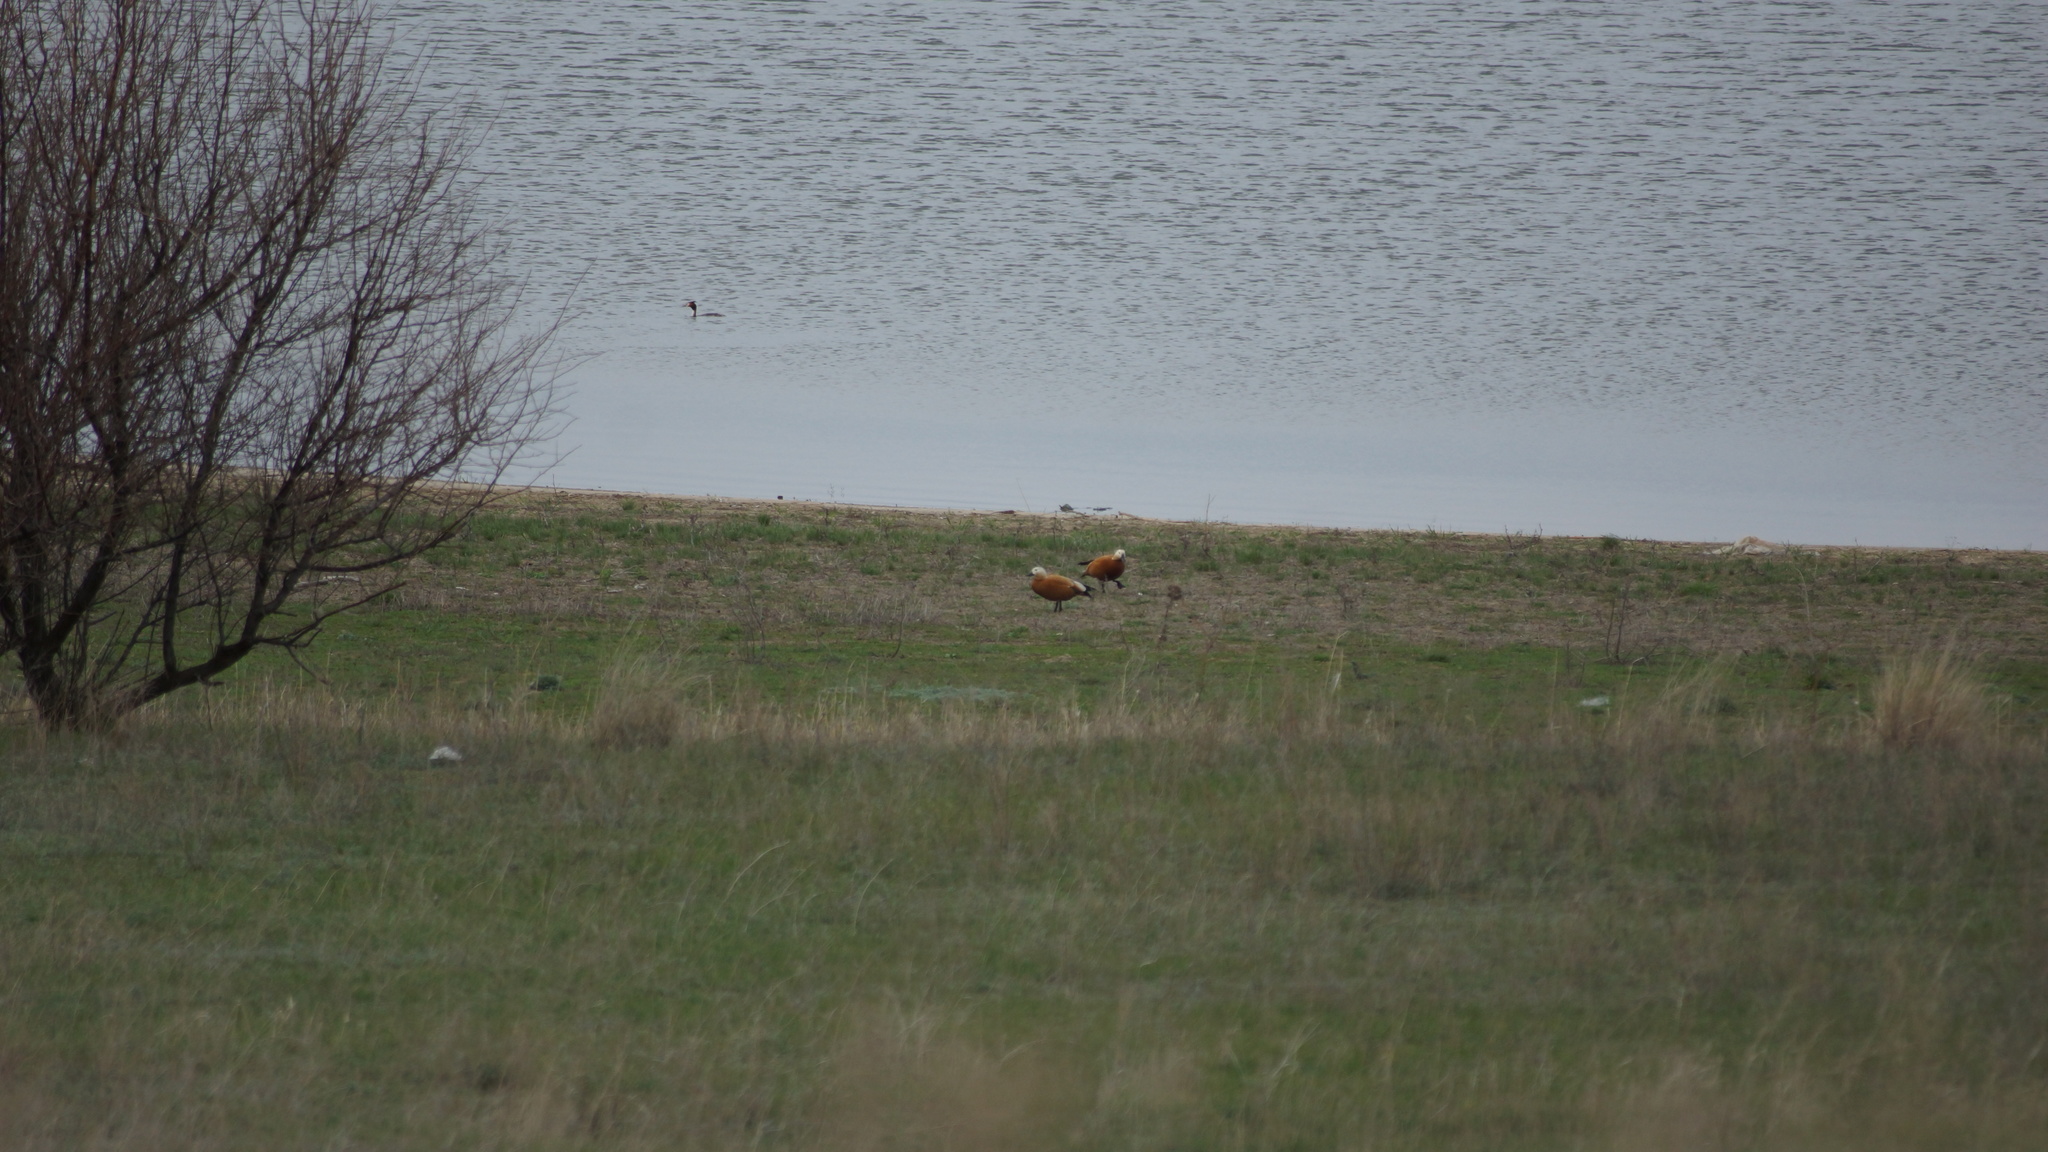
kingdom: Animalia
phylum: Chordata
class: Aves
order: Anseriformes
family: Anatidae
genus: Tadorna
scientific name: Tadorna ferruginea
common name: Ruddy shelduck
